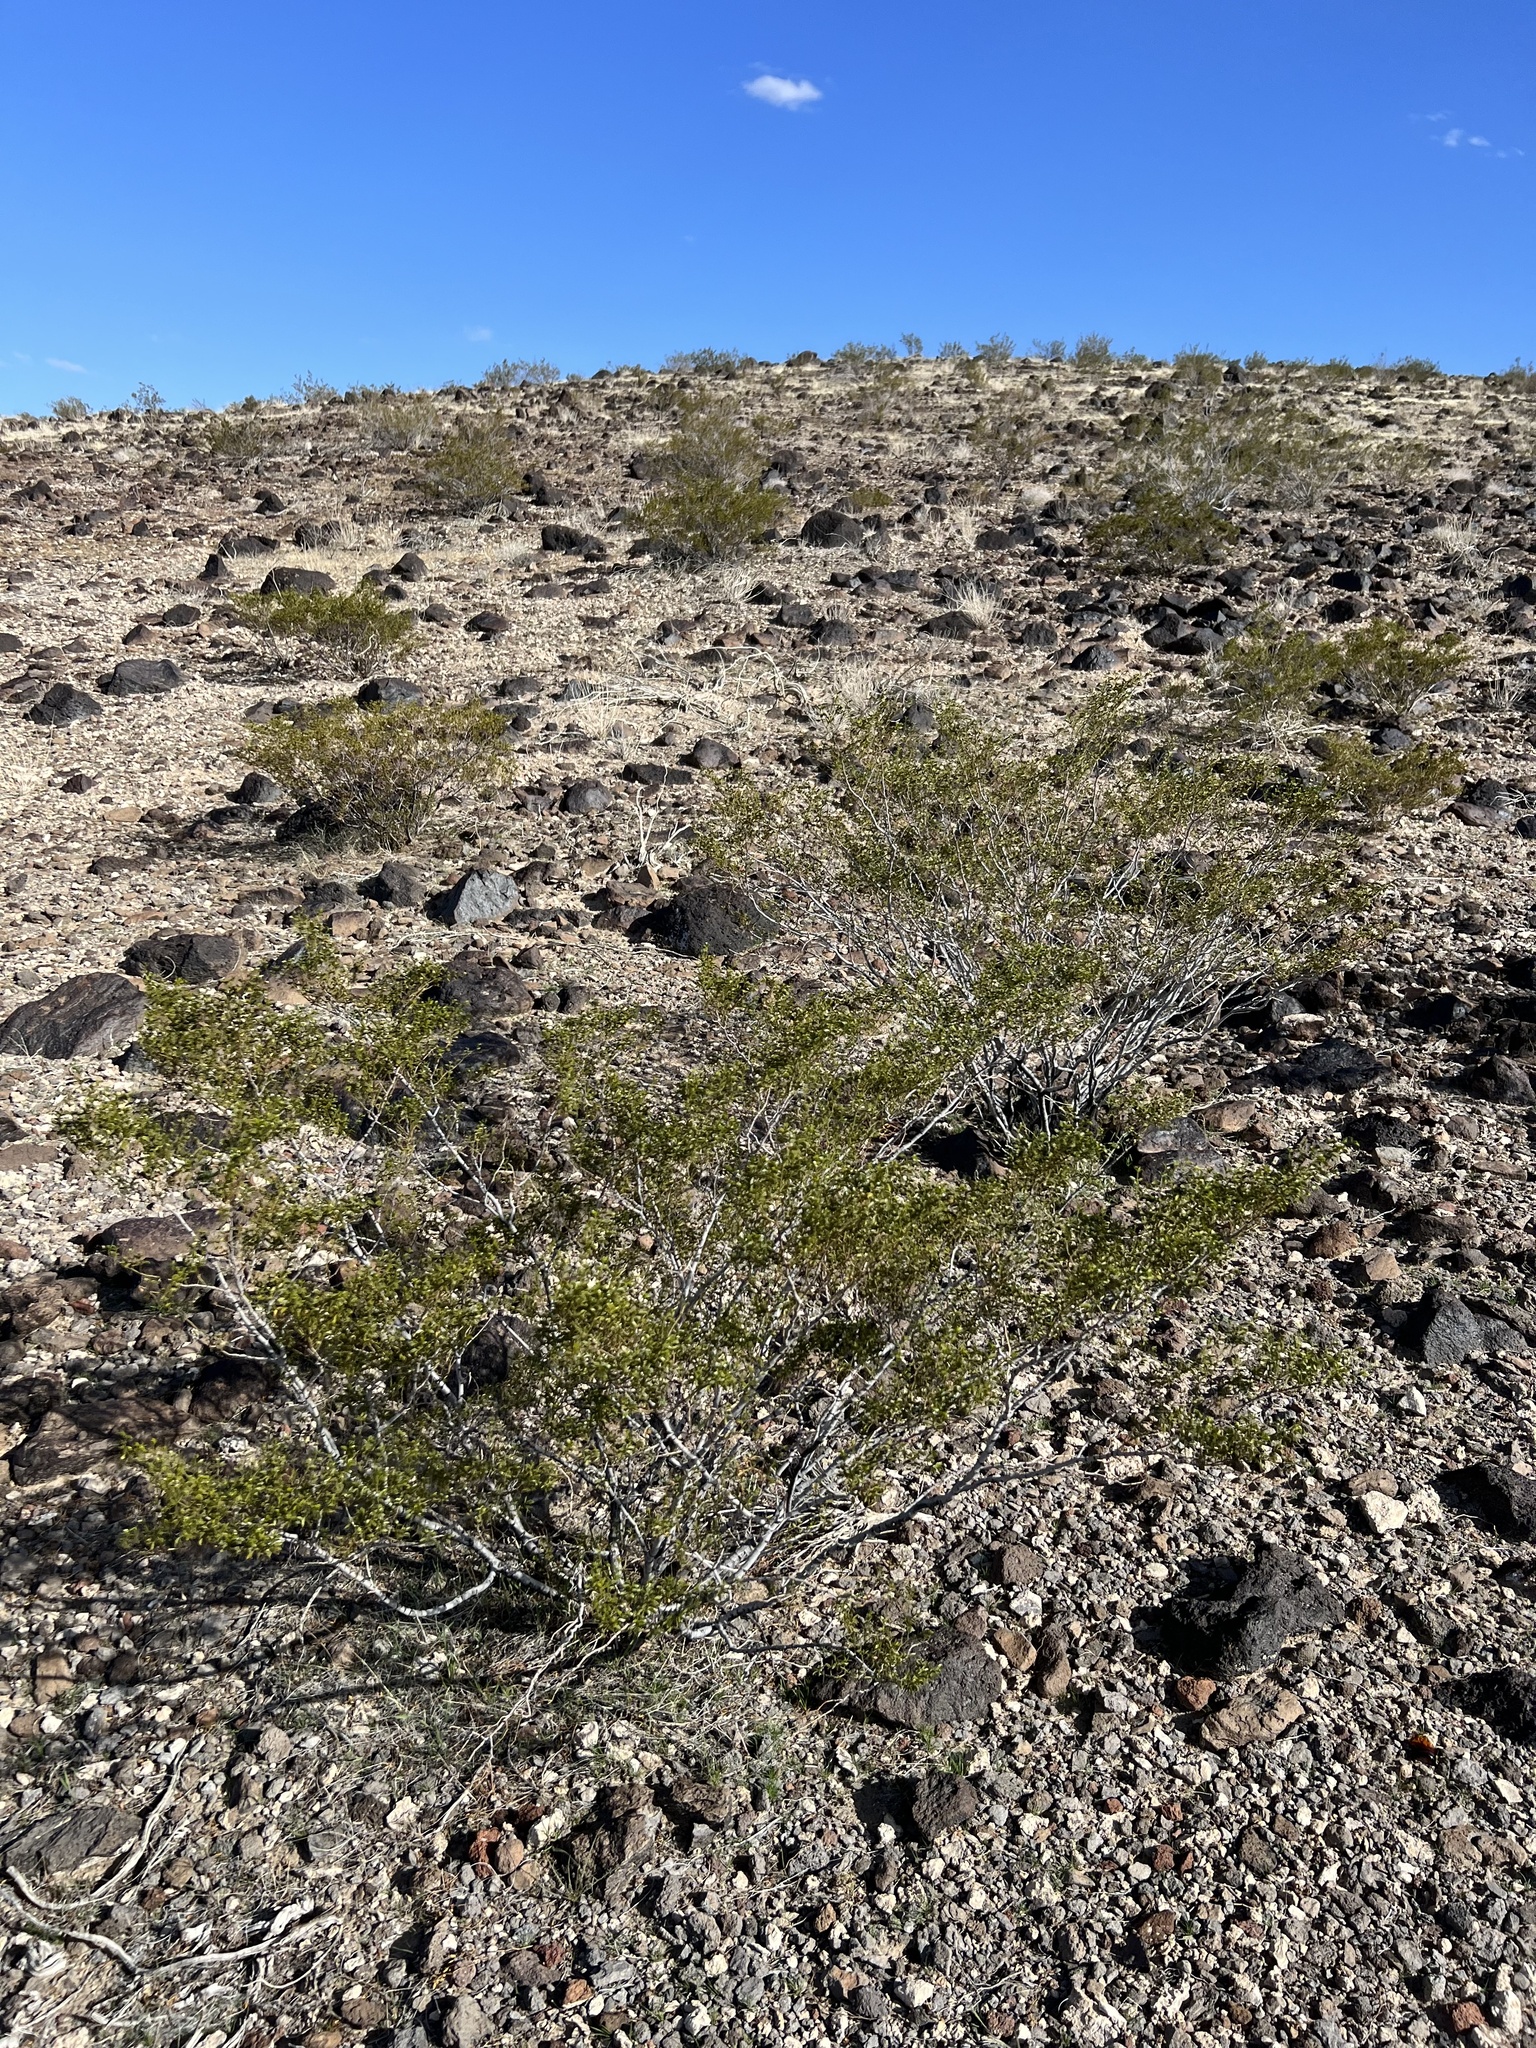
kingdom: Plantae
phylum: Tracheophyta
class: Magnoliopsida
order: Zygophyllales
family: Zygophyllaceae
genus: Larrea
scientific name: Larrea tridentata
